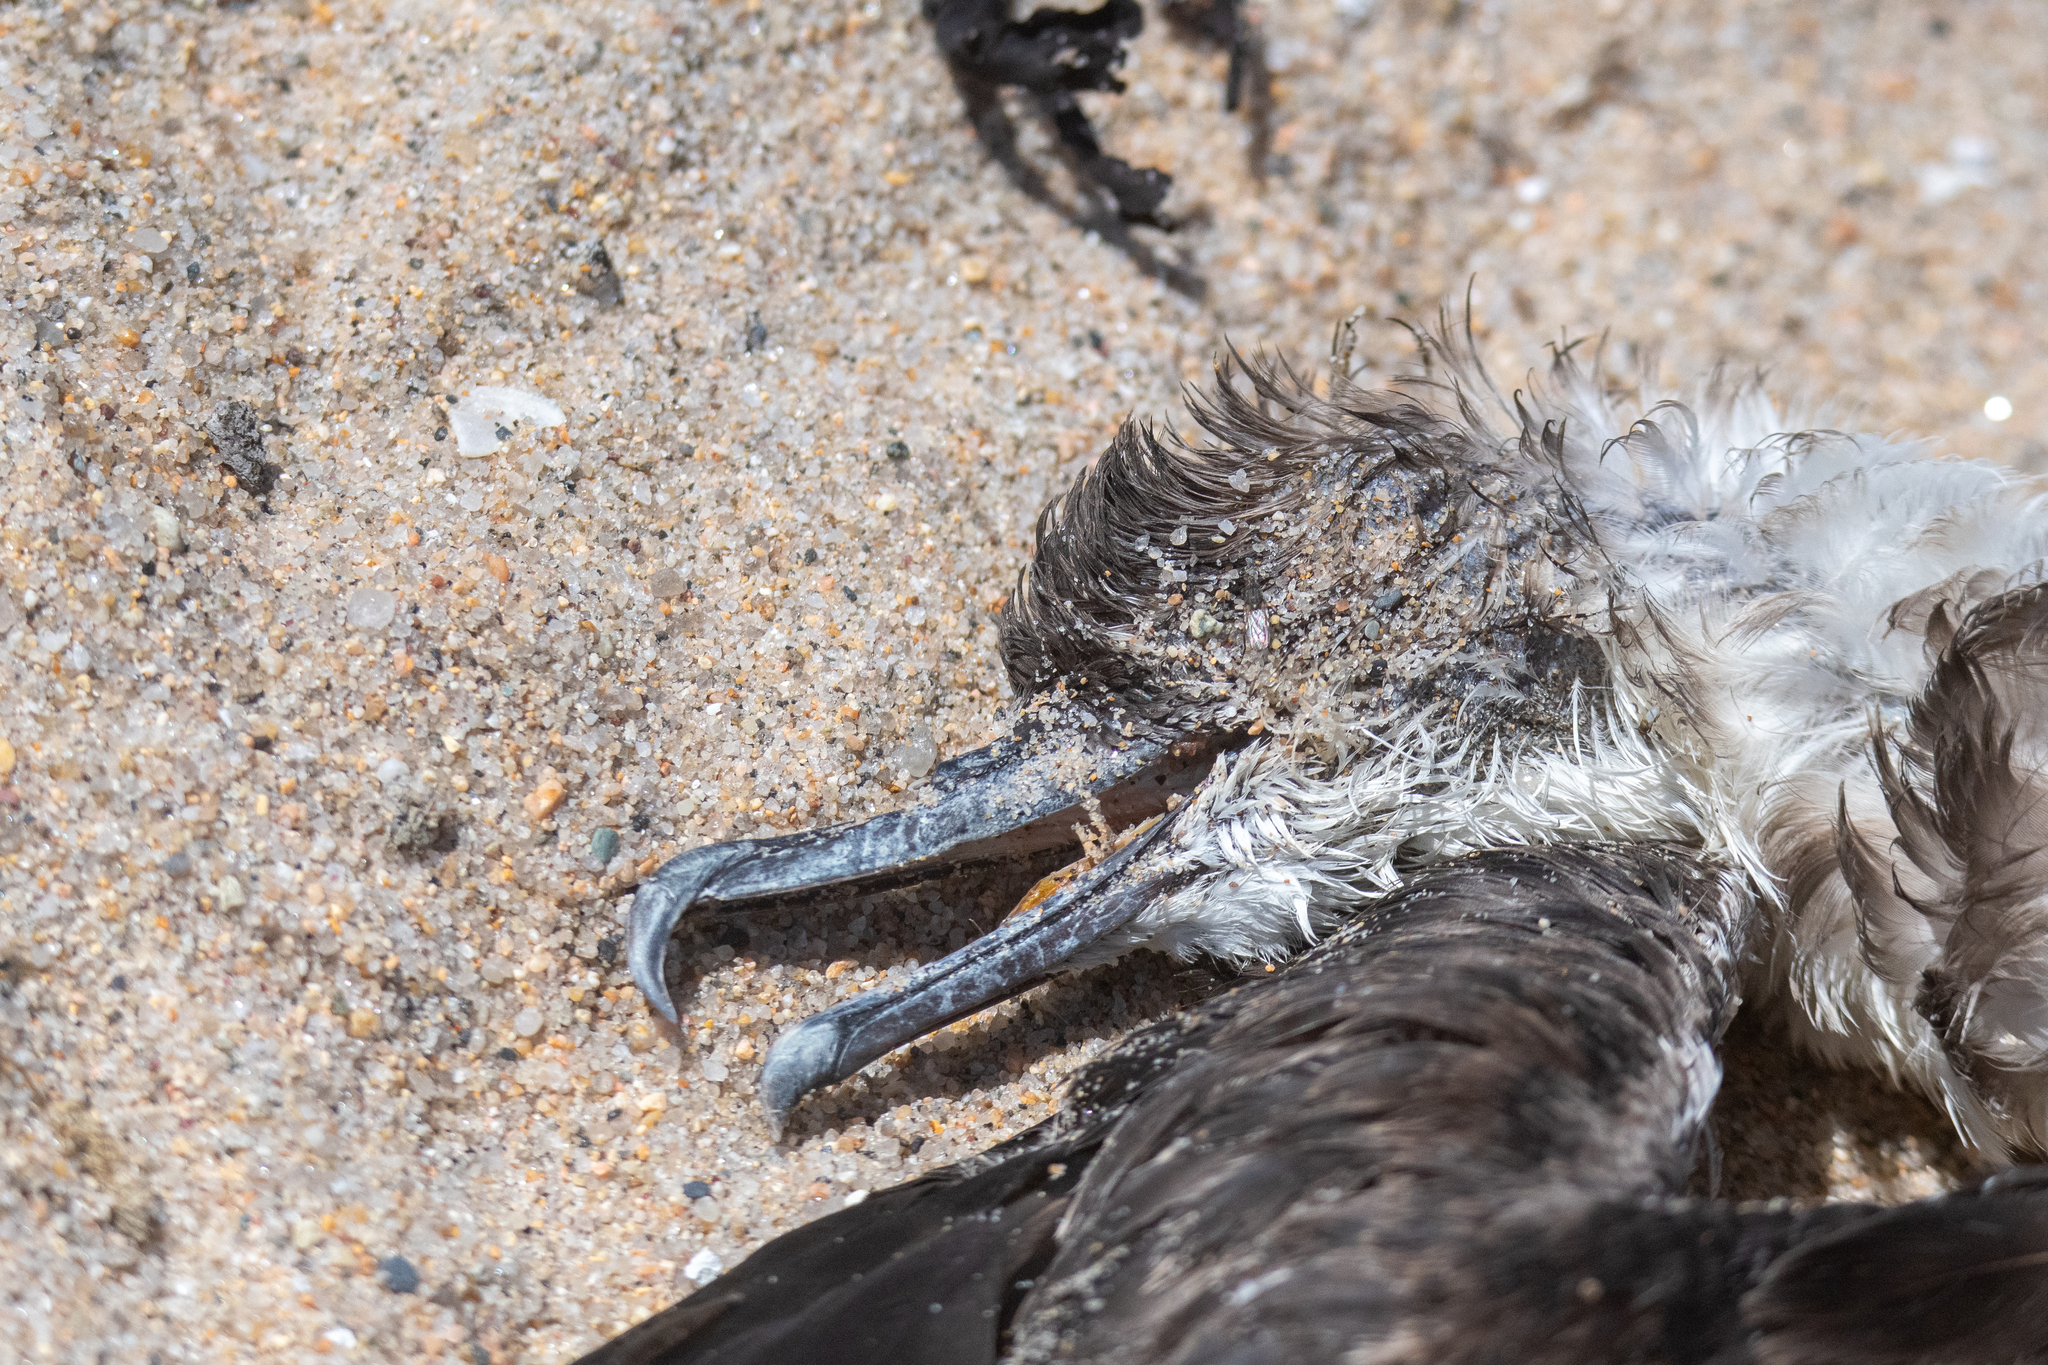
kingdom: Animalia
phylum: Chordata
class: Aves
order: Procellariiformes
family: Procellariidae
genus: Puffinus
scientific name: Puffinus gravis
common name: Great shearwater
